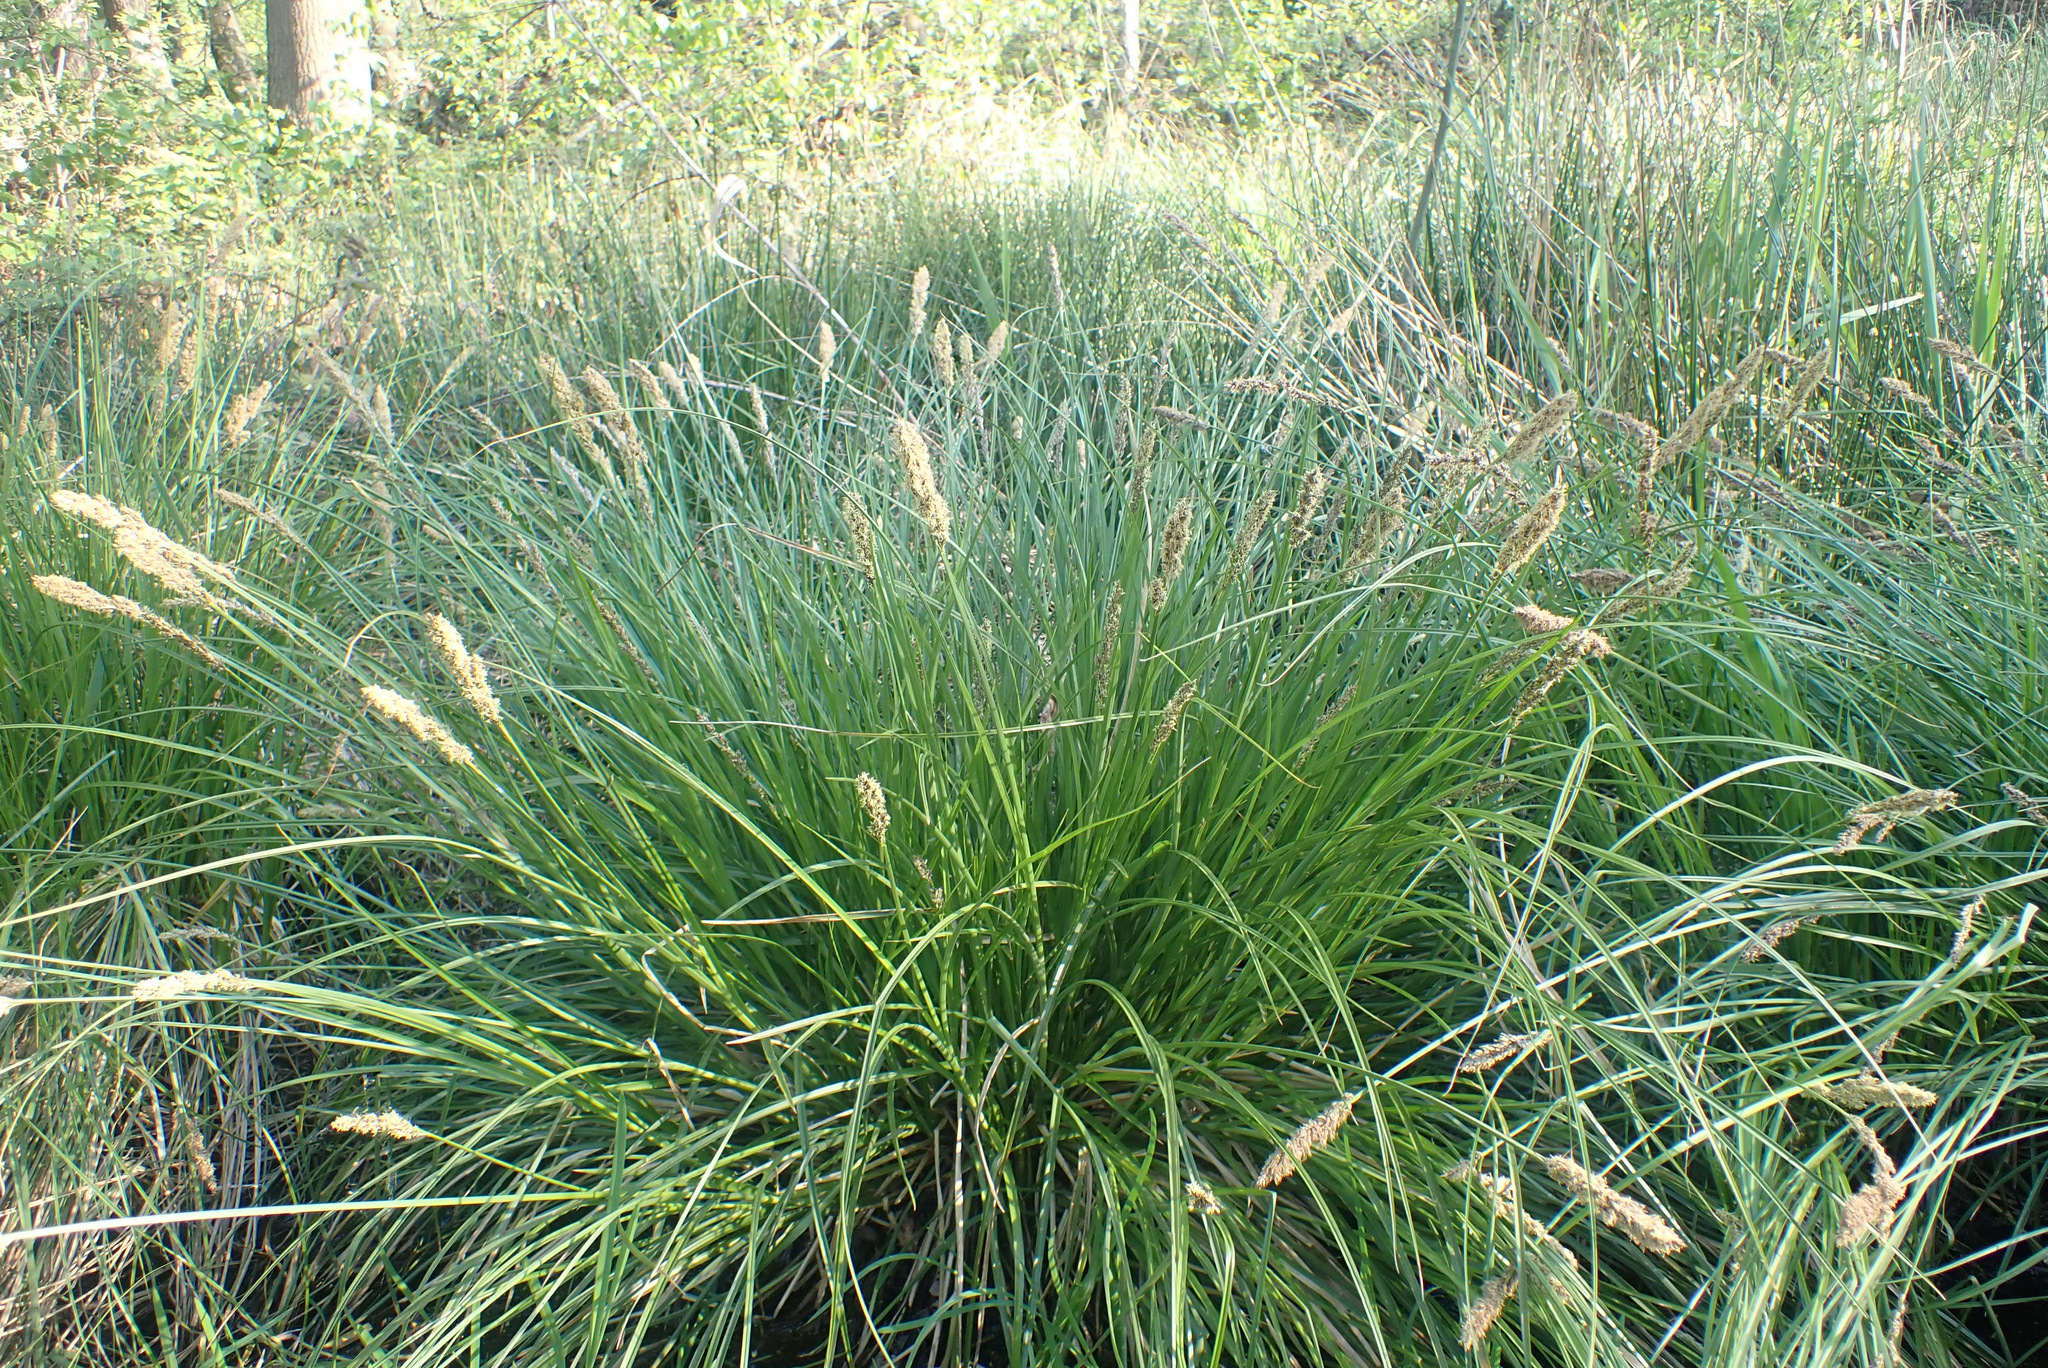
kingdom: Plantae
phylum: Tracheophyta
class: Liliopsida
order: Poales
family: Cyperaceae
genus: Carex
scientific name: Carex paniculata
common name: Greater tussock-sedge
